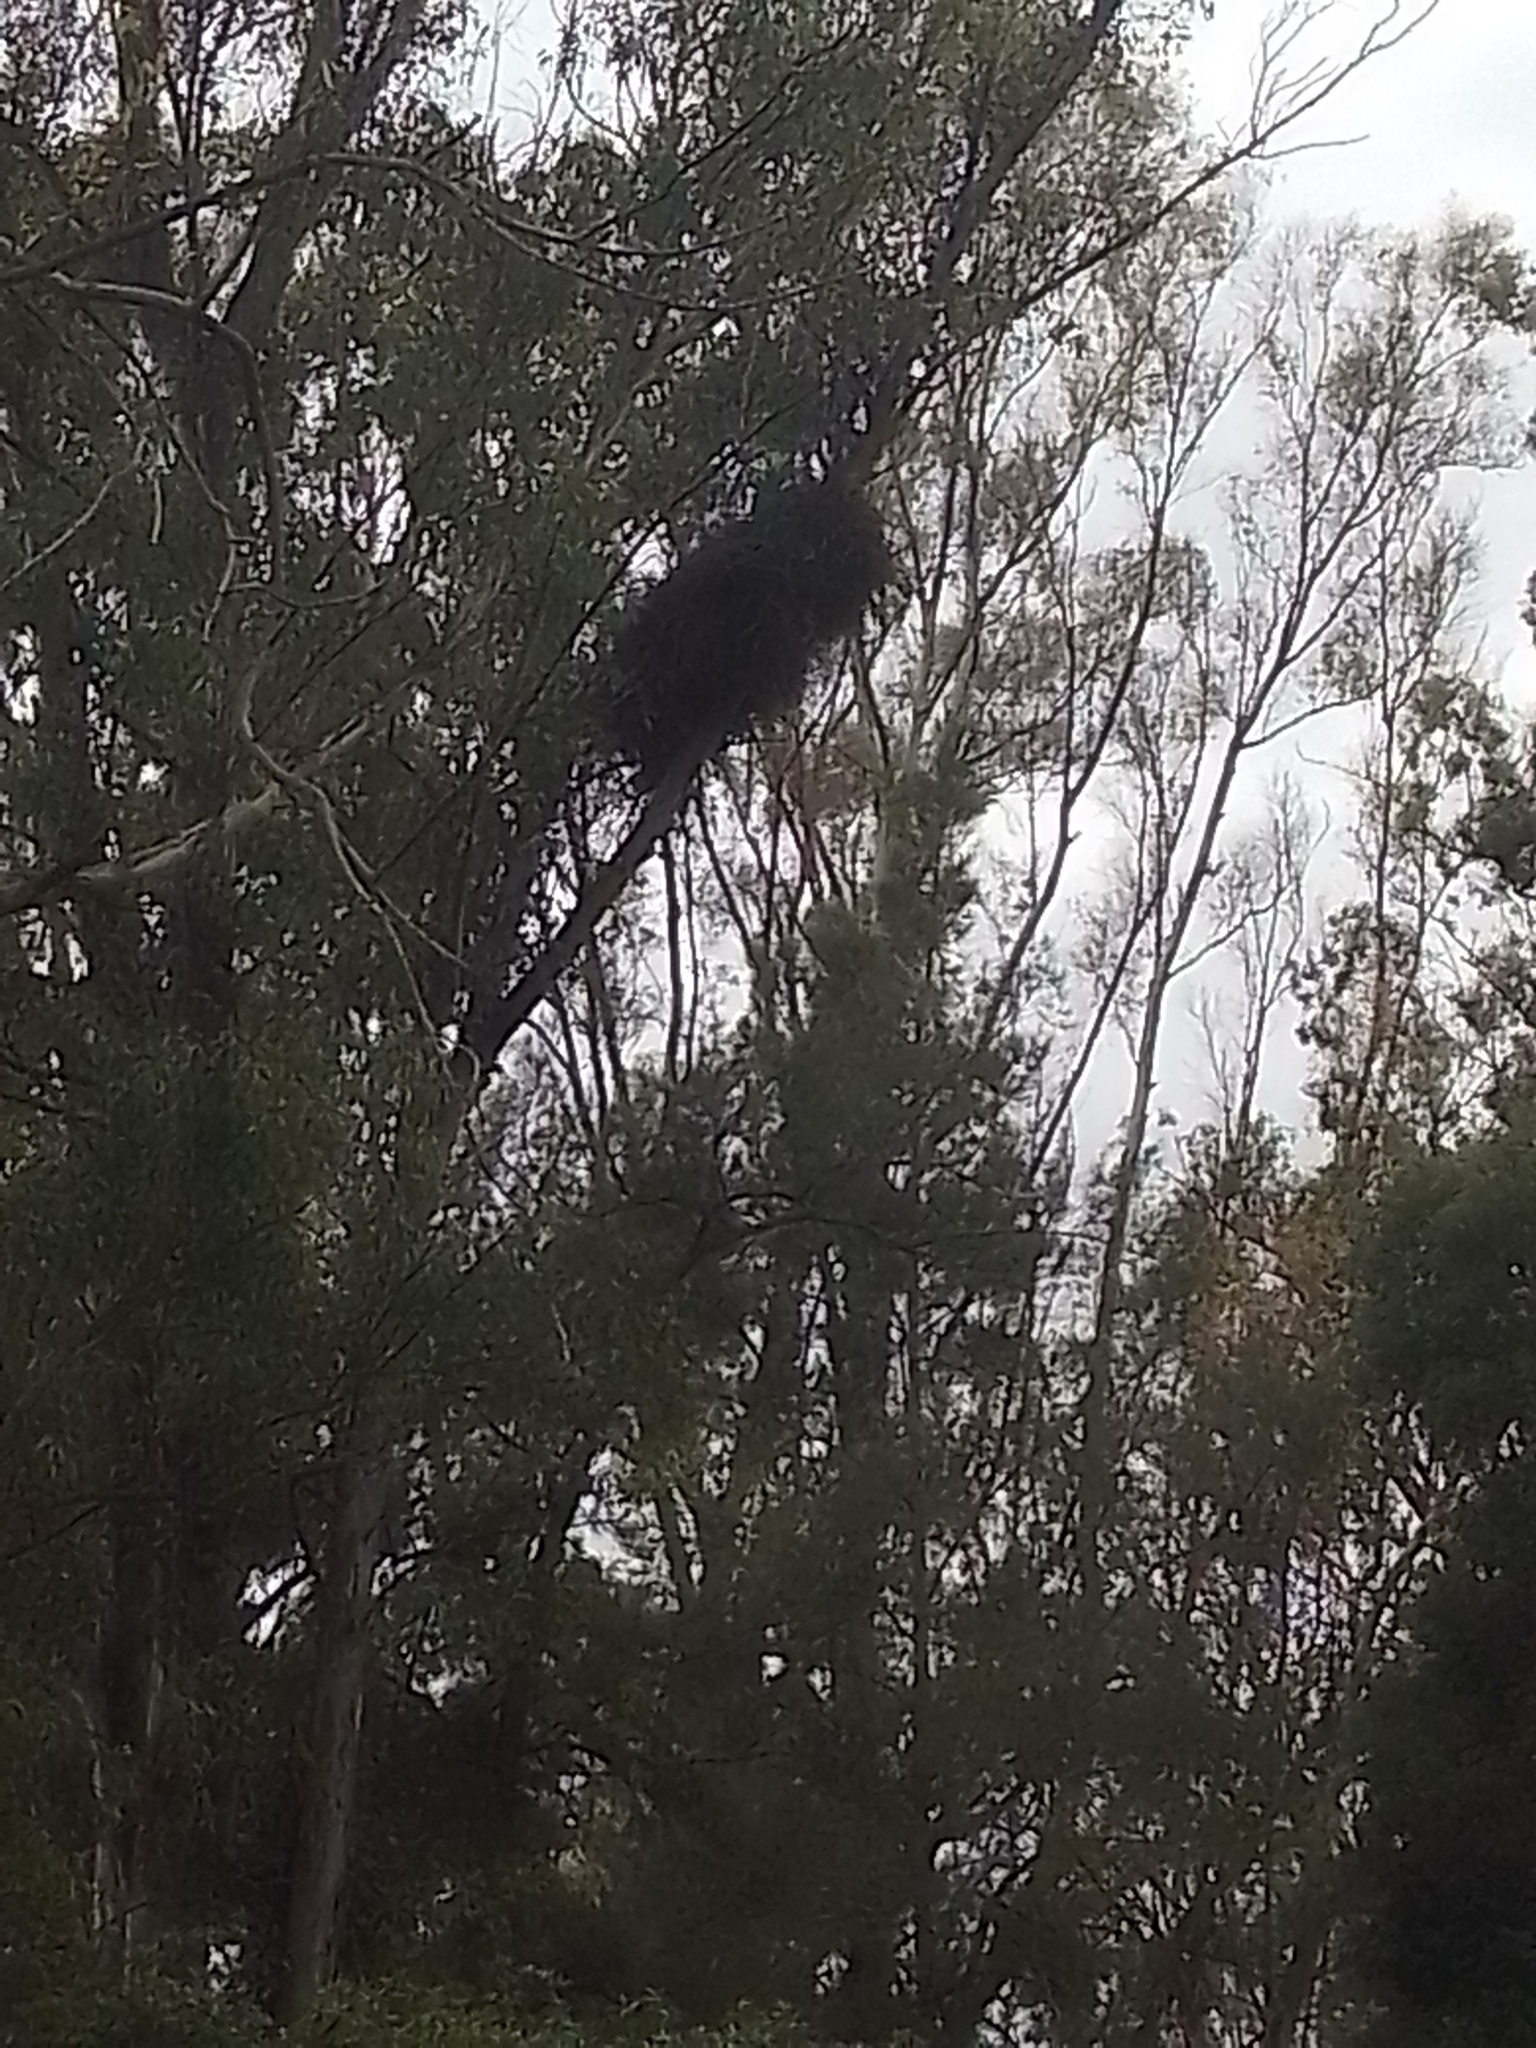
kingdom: Animalia
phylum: Chordata
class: Aves
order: Psittaciformes
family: Psittacidae
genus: Myiopsitta
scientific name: Myiopsitta monachus
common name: Monk parakeet
